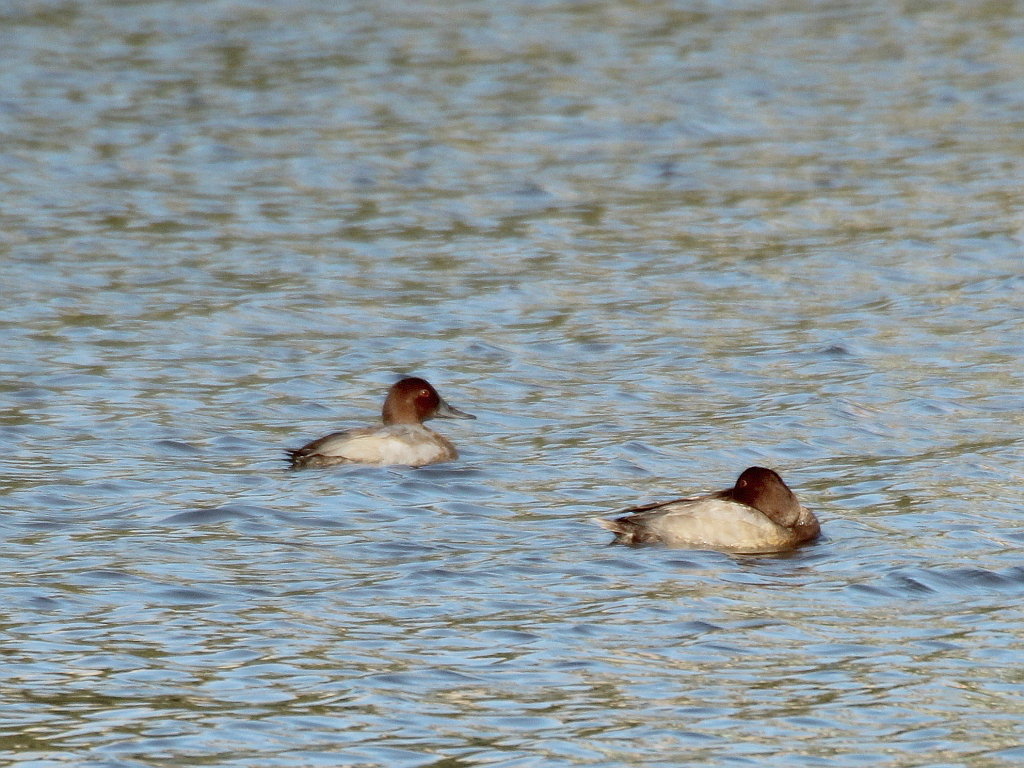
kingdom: Animalia
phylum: Chordata
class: Aves
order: Anseriformes
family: Anatidae
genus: Aythya
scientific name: Aythya ferina
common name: Common pochard
